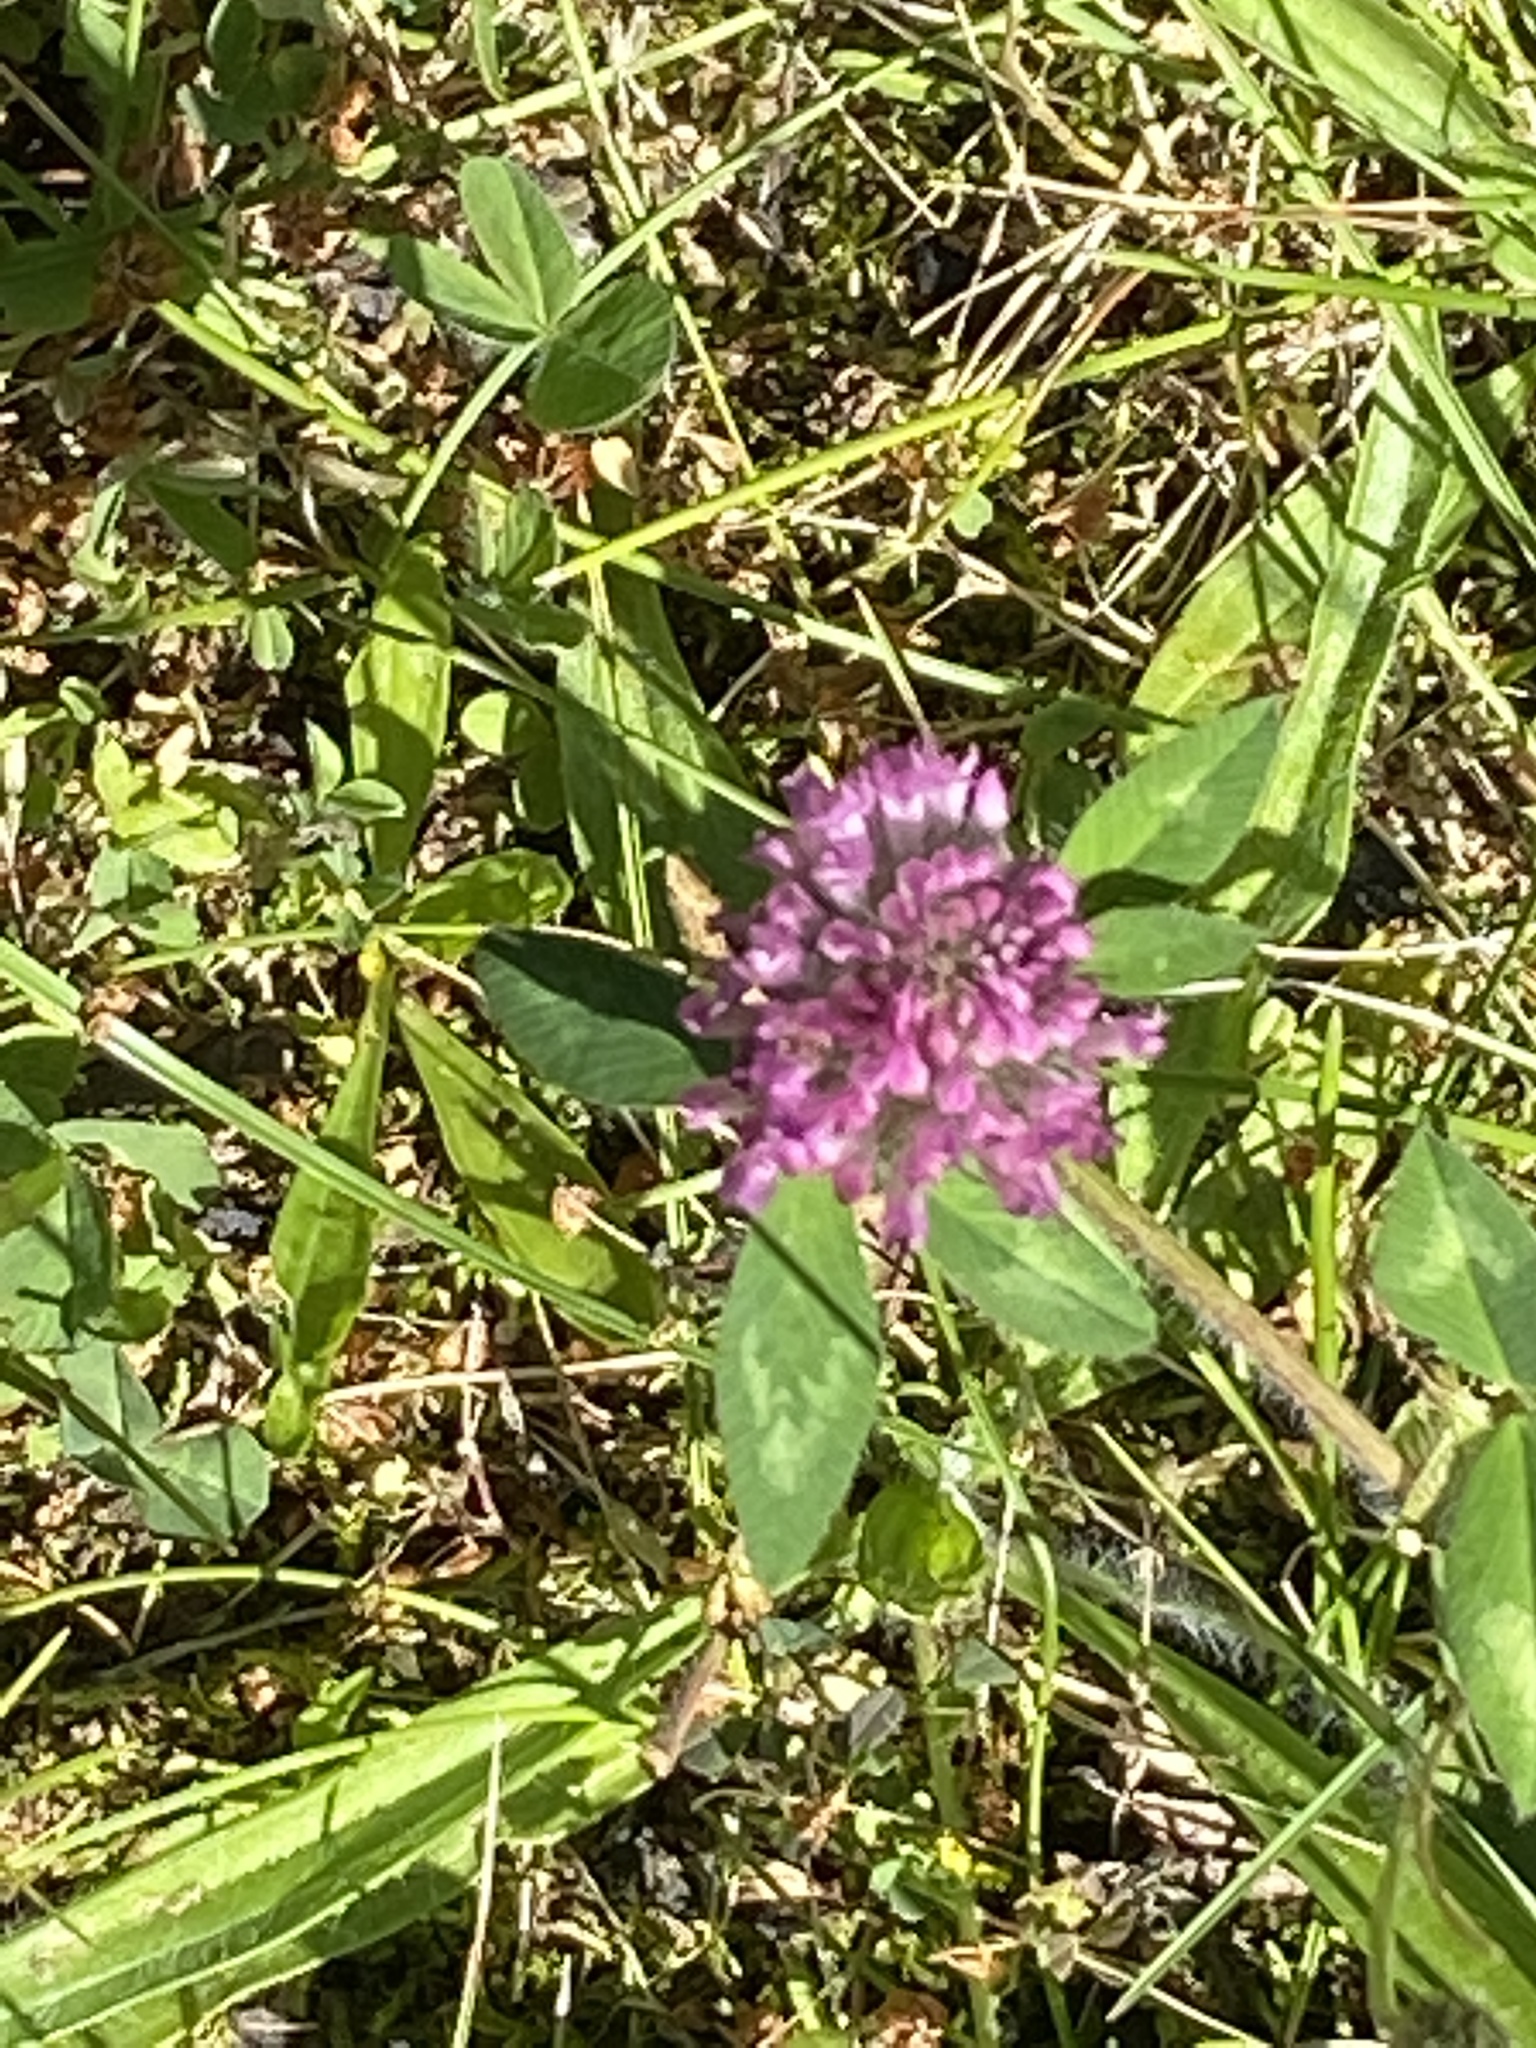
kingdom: Plantae
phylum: Tracheophyta
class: Magnoliopsida
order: Fabales
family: Fabaceae
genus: Trifolium
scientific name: Trifolium pratense
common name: Red clover
